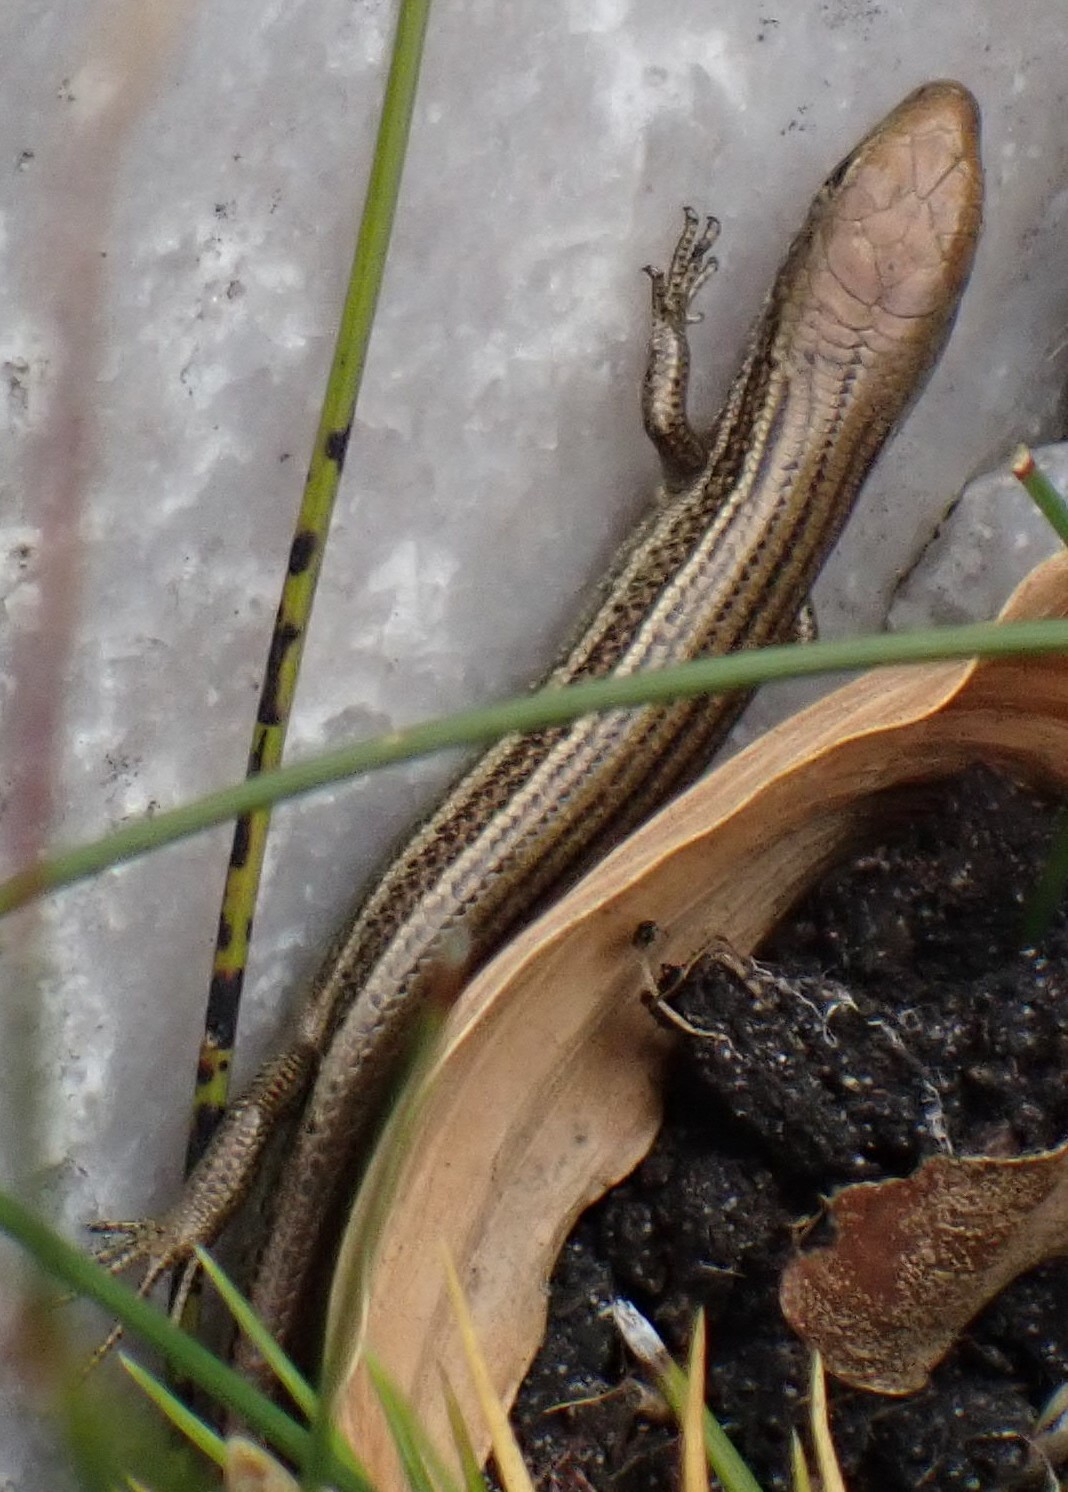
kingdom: Animalia
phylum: Chordata
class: Squamata
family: Scincidae
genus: Pseudemoia
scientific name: Pseudemoia pagenstecheri
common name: Southern grass tussock skink
